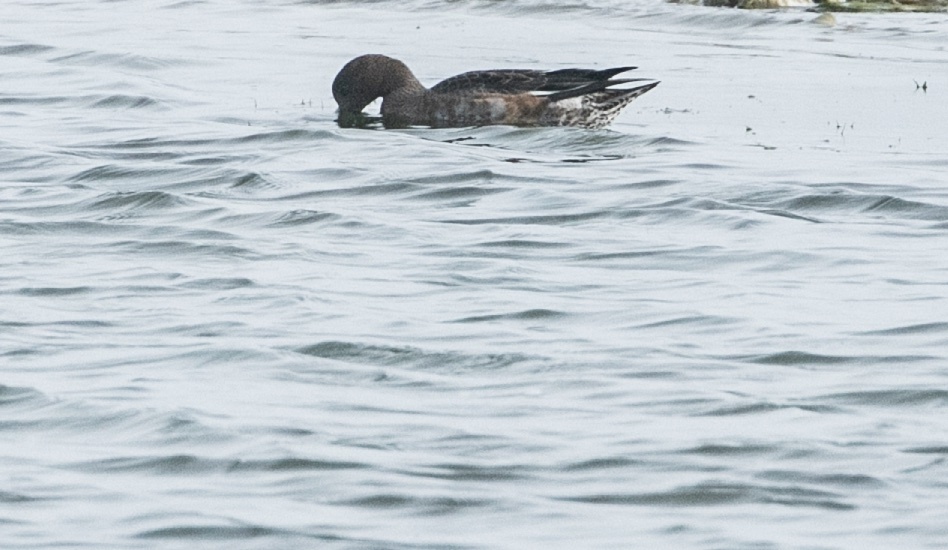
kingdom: Animalia
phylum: Chordata
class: Aves
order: Anseriformes
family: Anatidae
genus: Mareca
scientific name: Mareca penelope
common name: Eurasian wigeon
